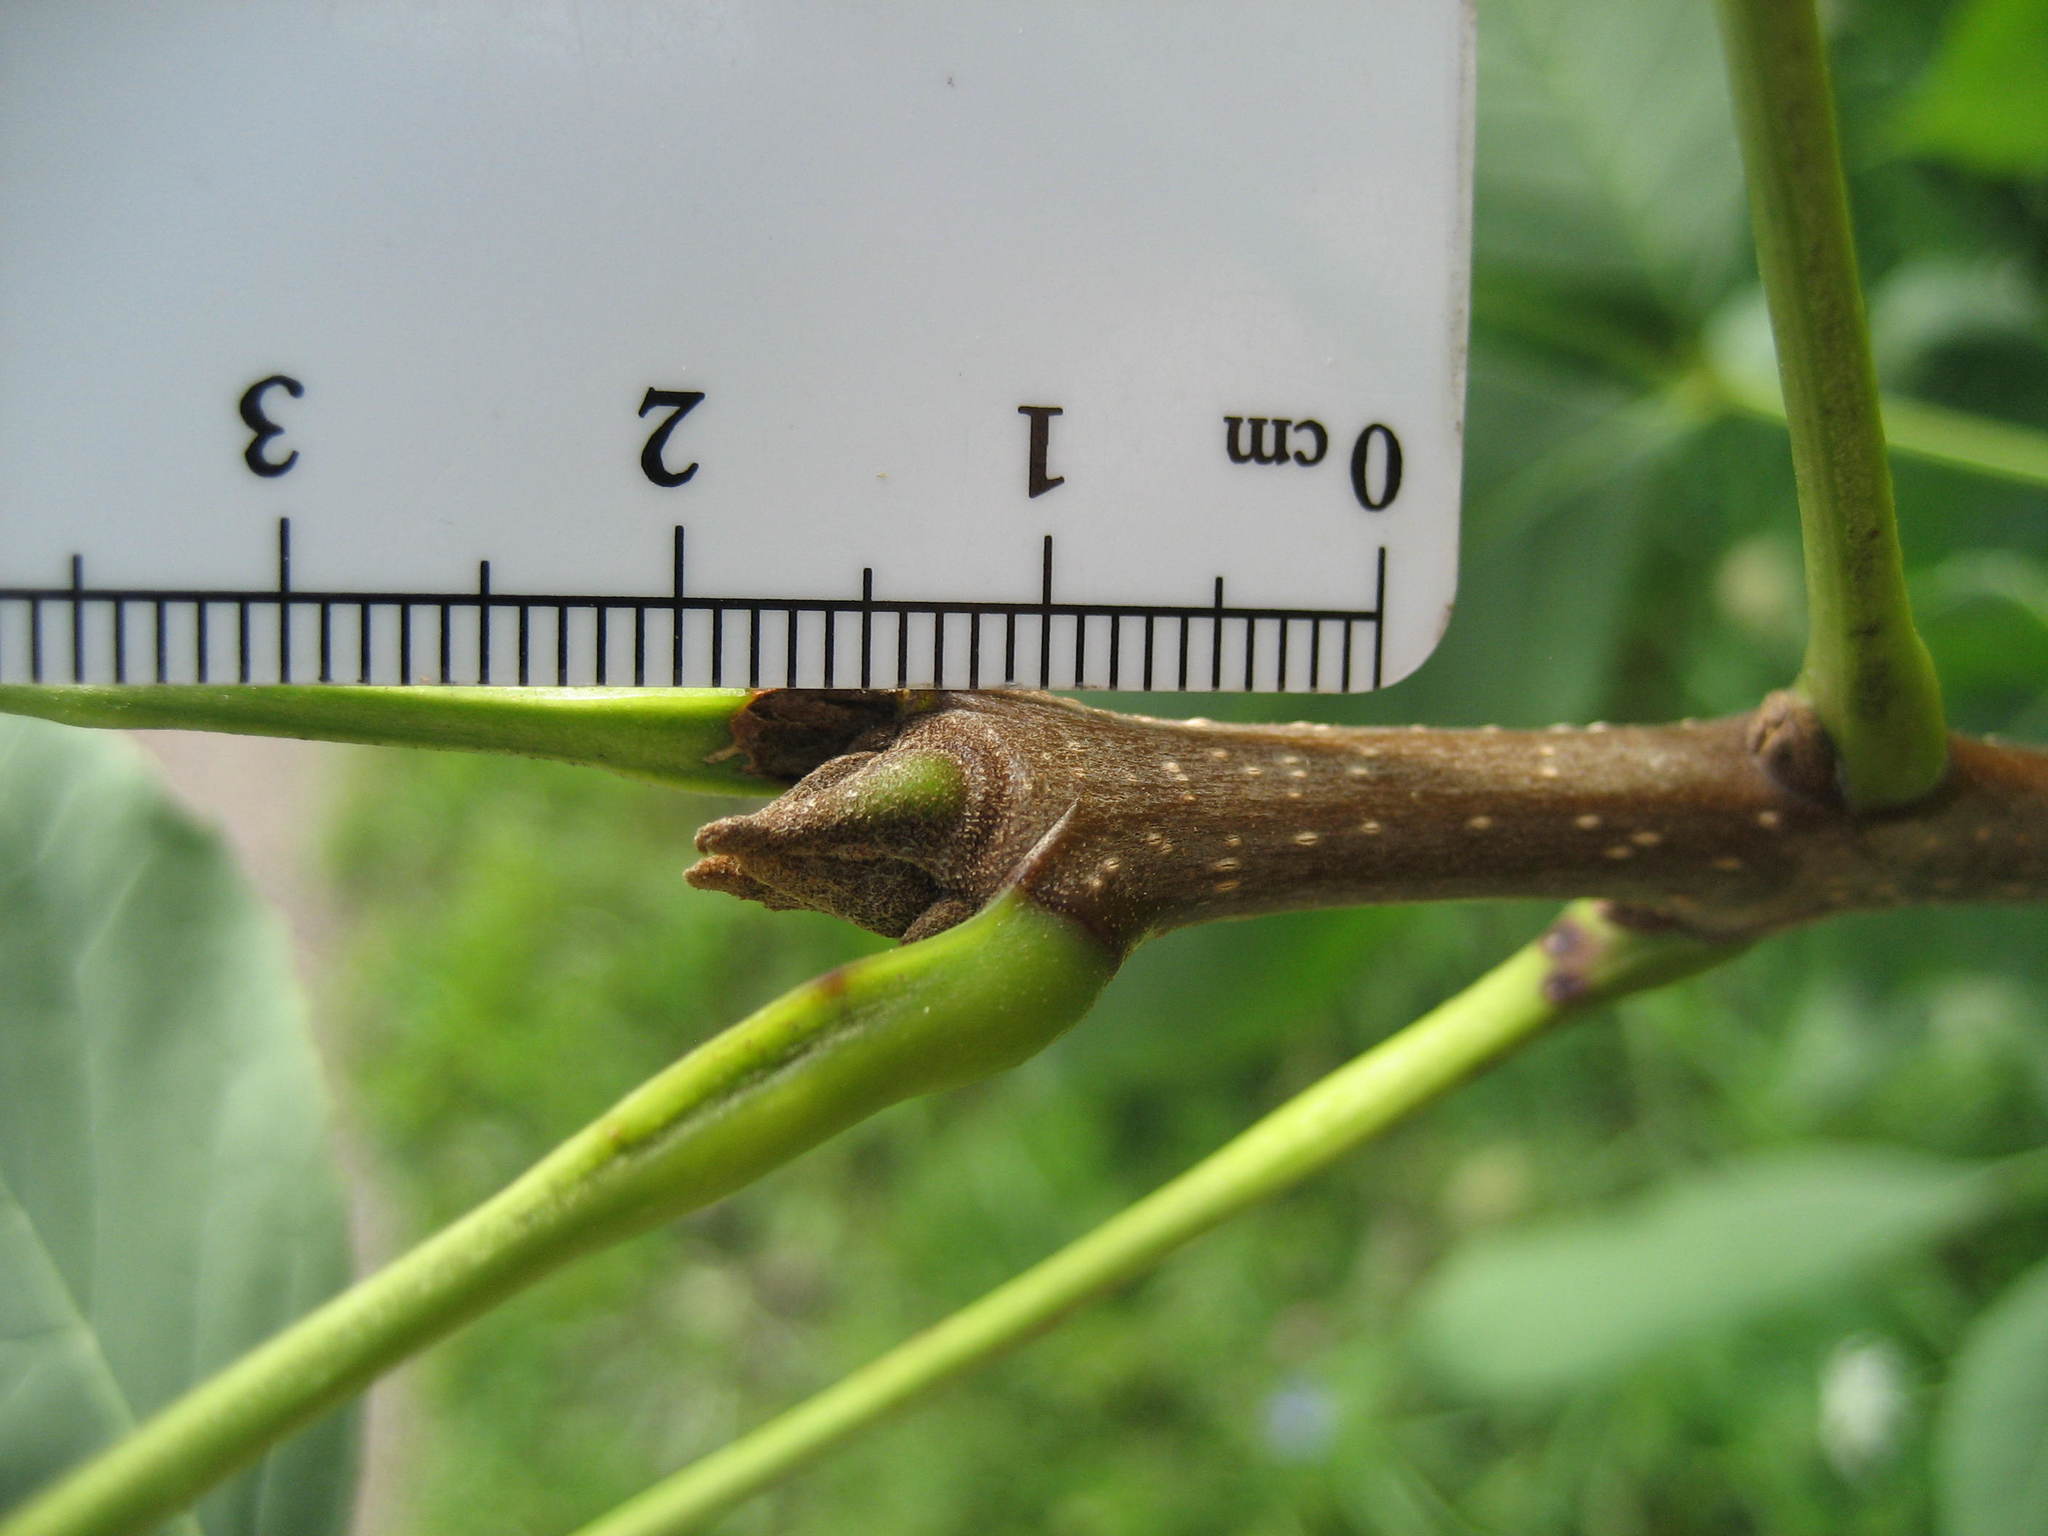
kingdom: Plantae
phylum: Tracheophyta
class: Magnoliopsida
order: Lamiales
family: Oleaceae
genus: Fraxinus
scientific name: Fraxinus pennsylvanica
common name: Green ash
